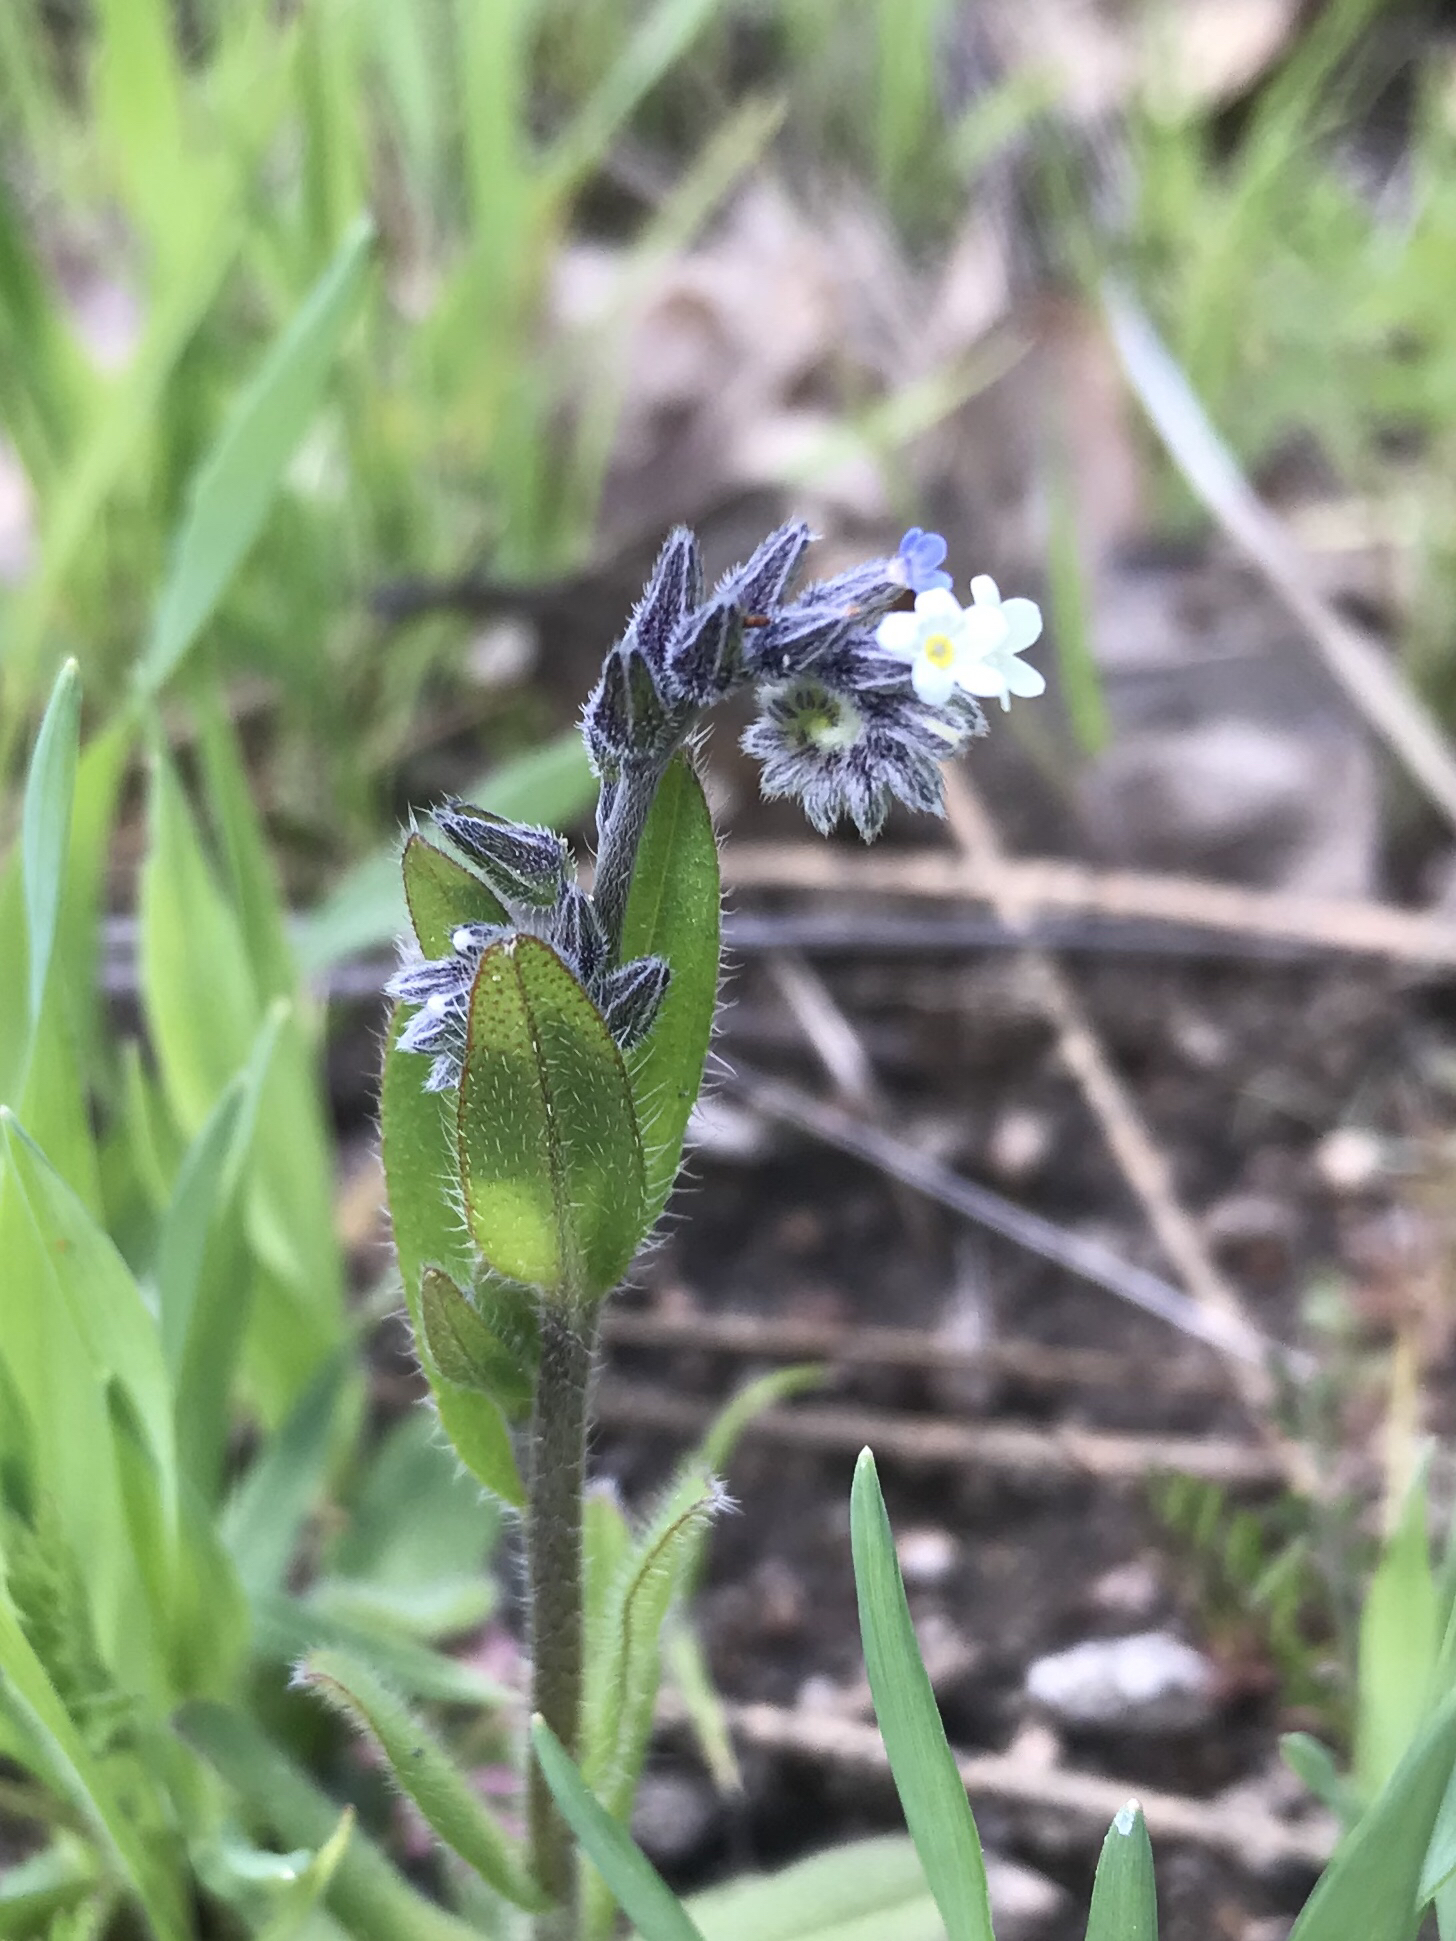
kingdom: Plantae
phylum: Tracheophyta
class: Magnoliopsida
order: Boraginales
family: Boraginaceae
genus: Myosotis
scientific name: Myosotis discolor
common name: Changing forget-me-not
